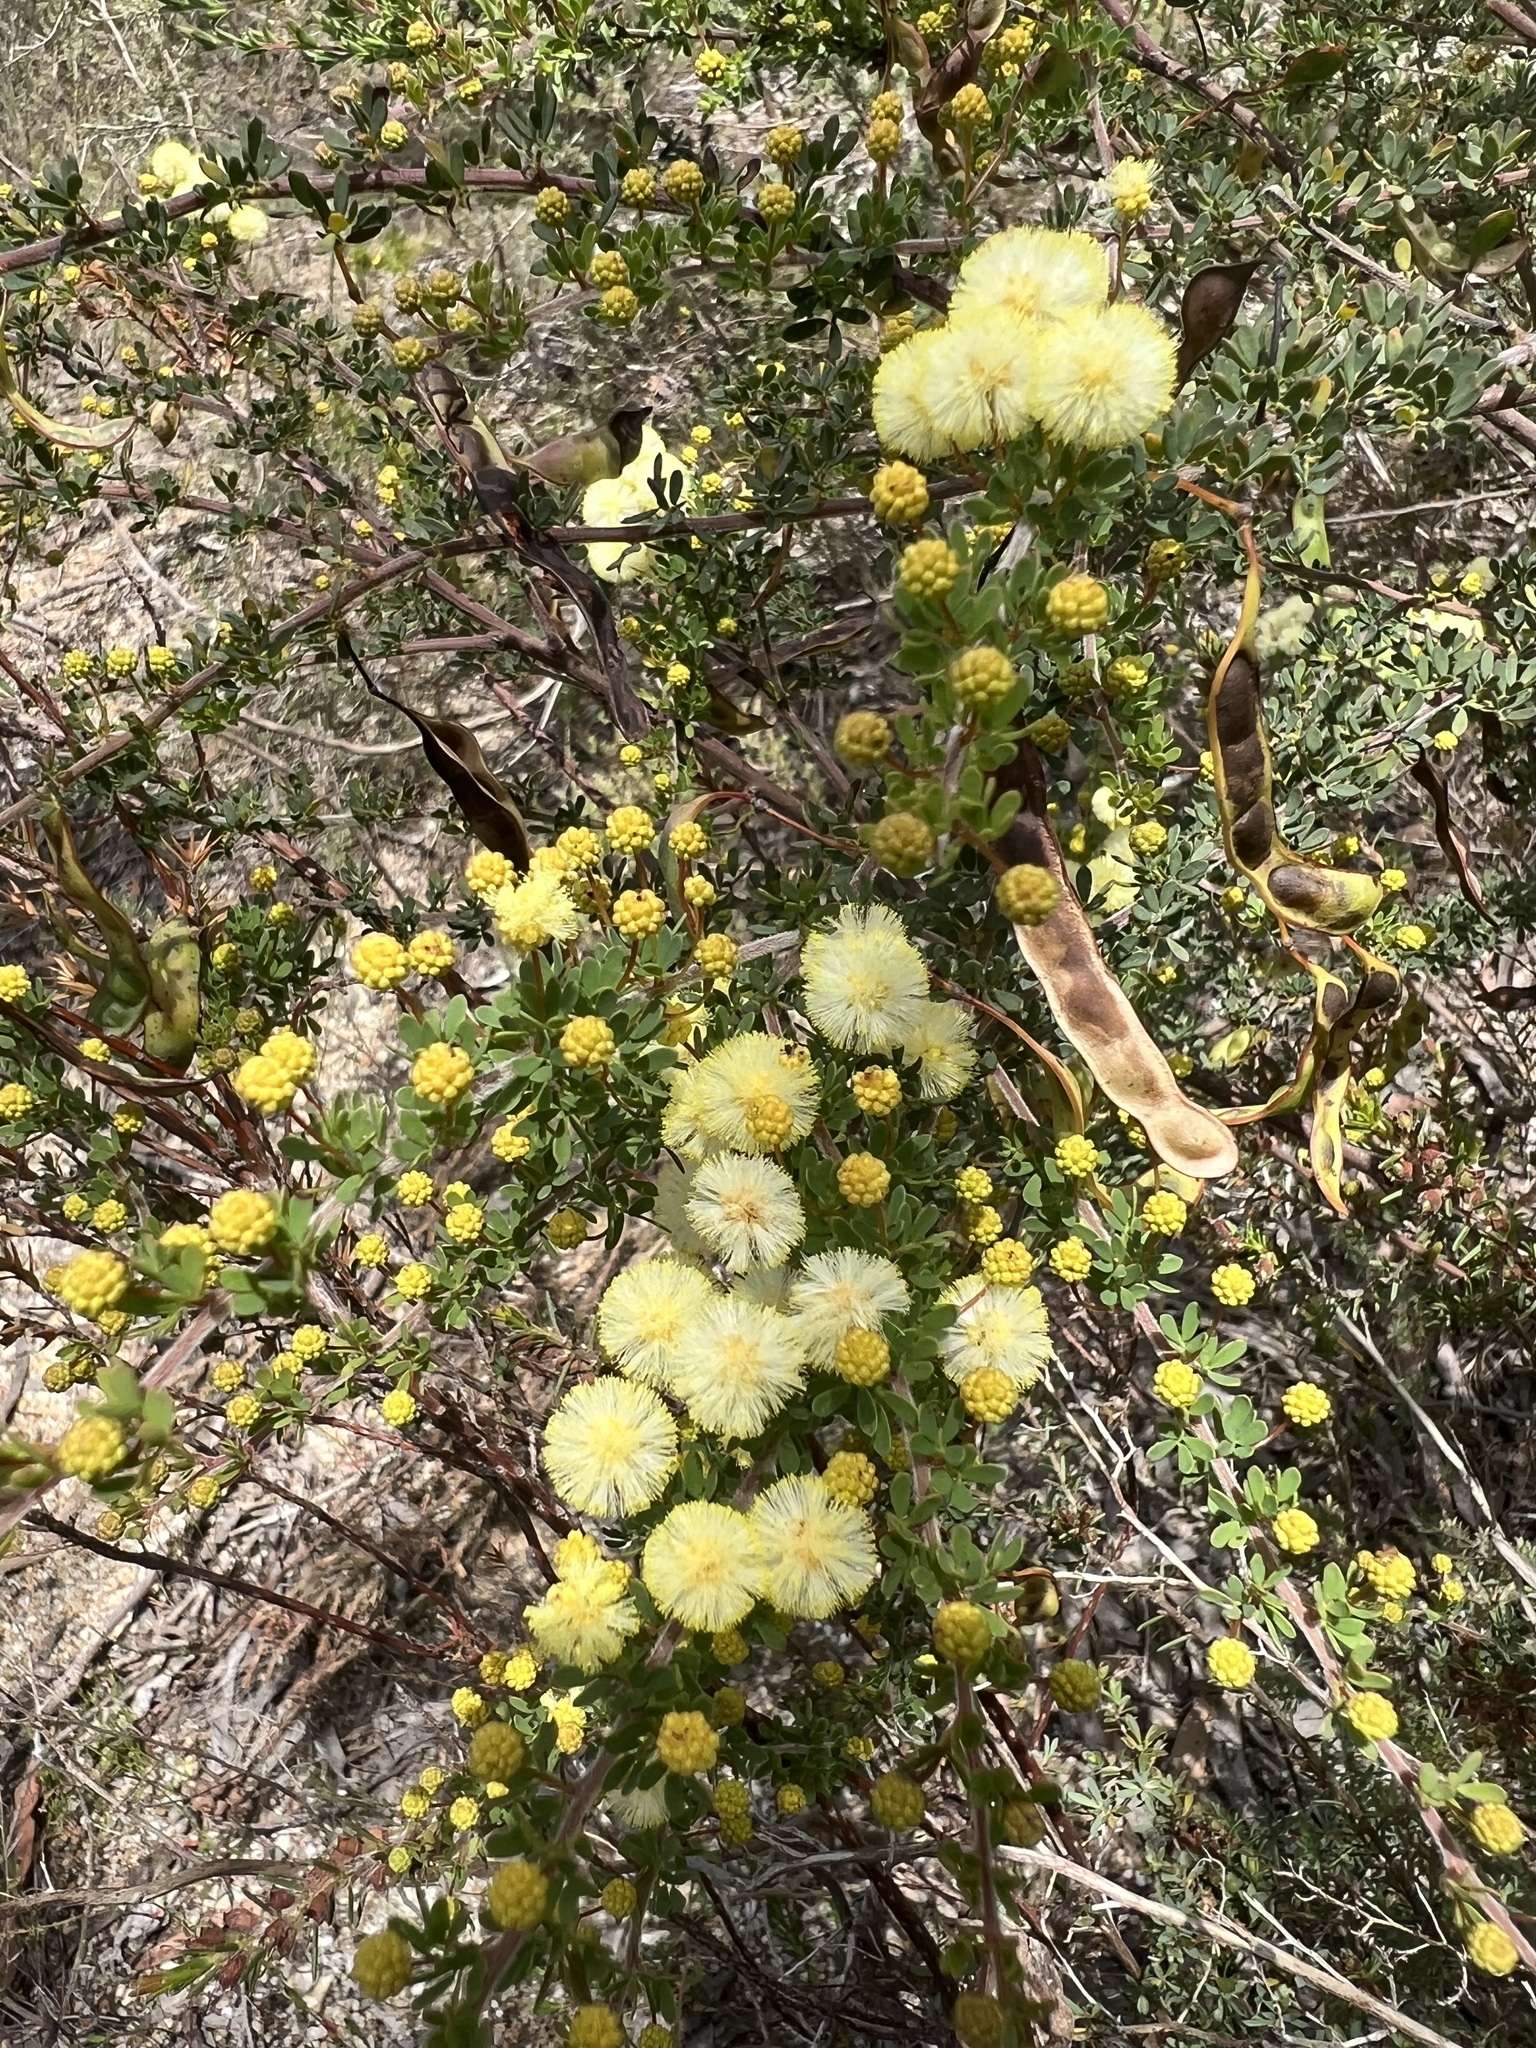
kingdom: Plantae
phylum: Tracheophyta
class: Magnoliopsida
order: Fabales
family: Fabaceae
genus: Acacia
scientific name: Acacia mitchellii
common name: Mitchell's wattle
